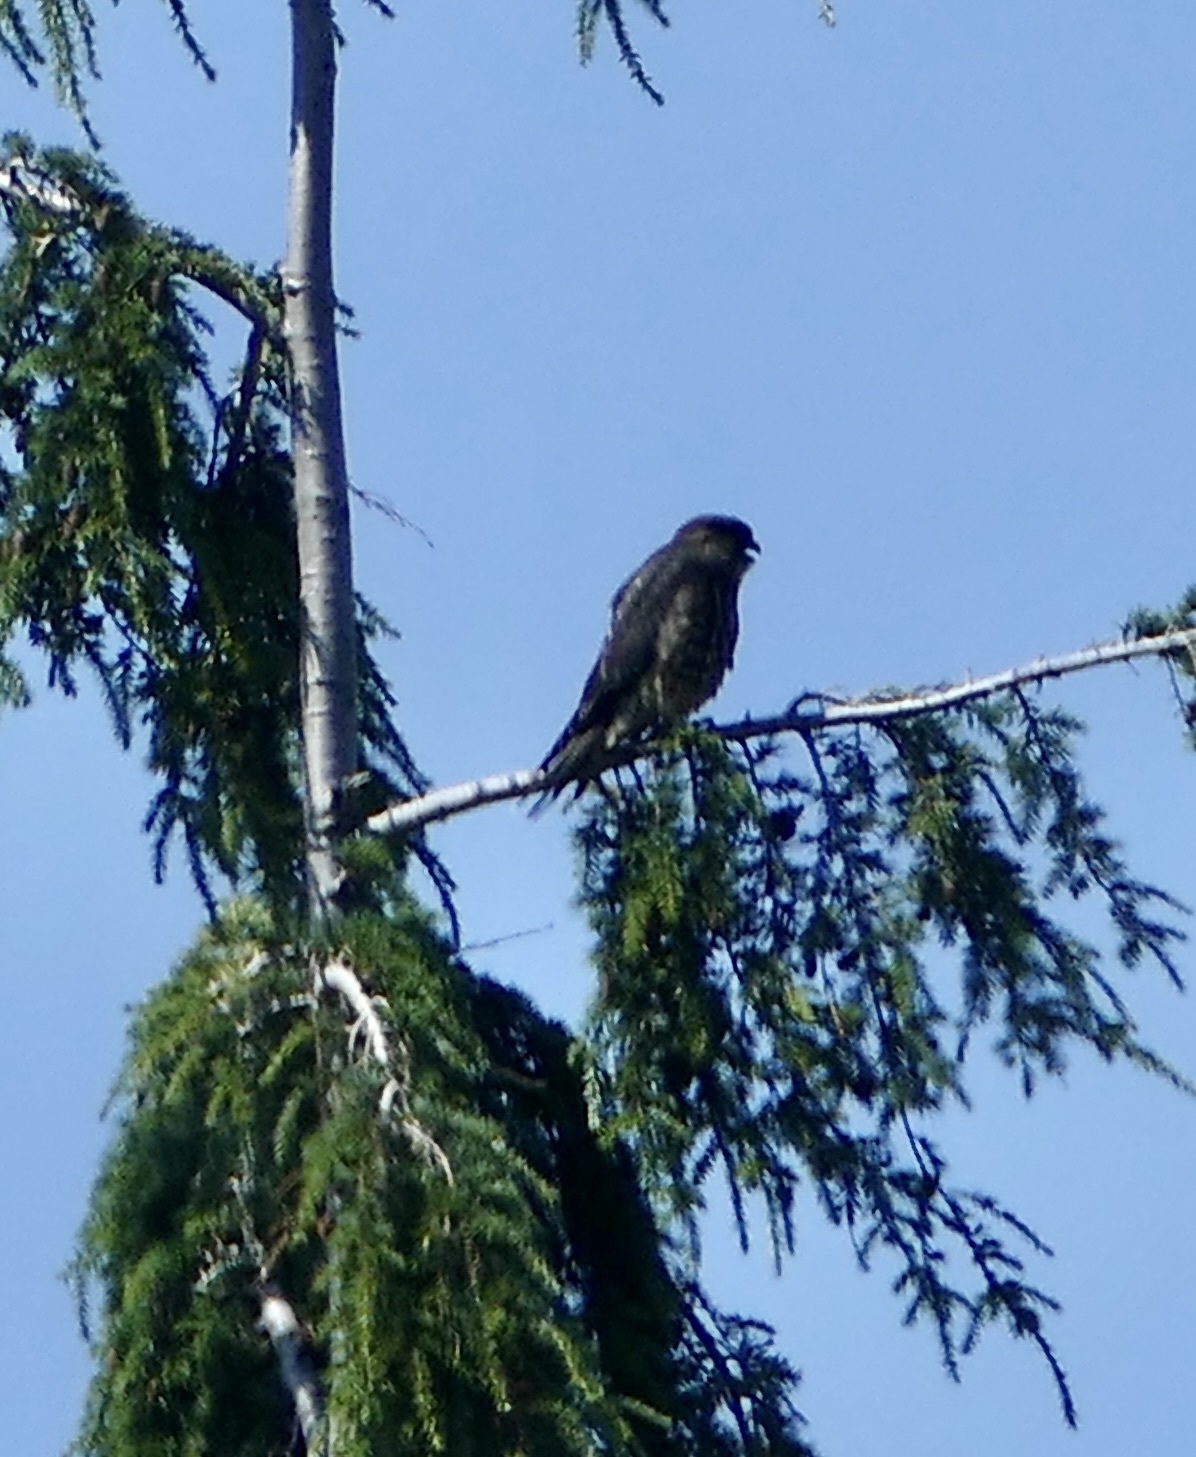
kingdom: Animalia
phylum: Chordata
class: Aves
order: Falconiformes
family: Falconidae
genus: Falco
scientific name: Falco columbarius
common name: Merlin
